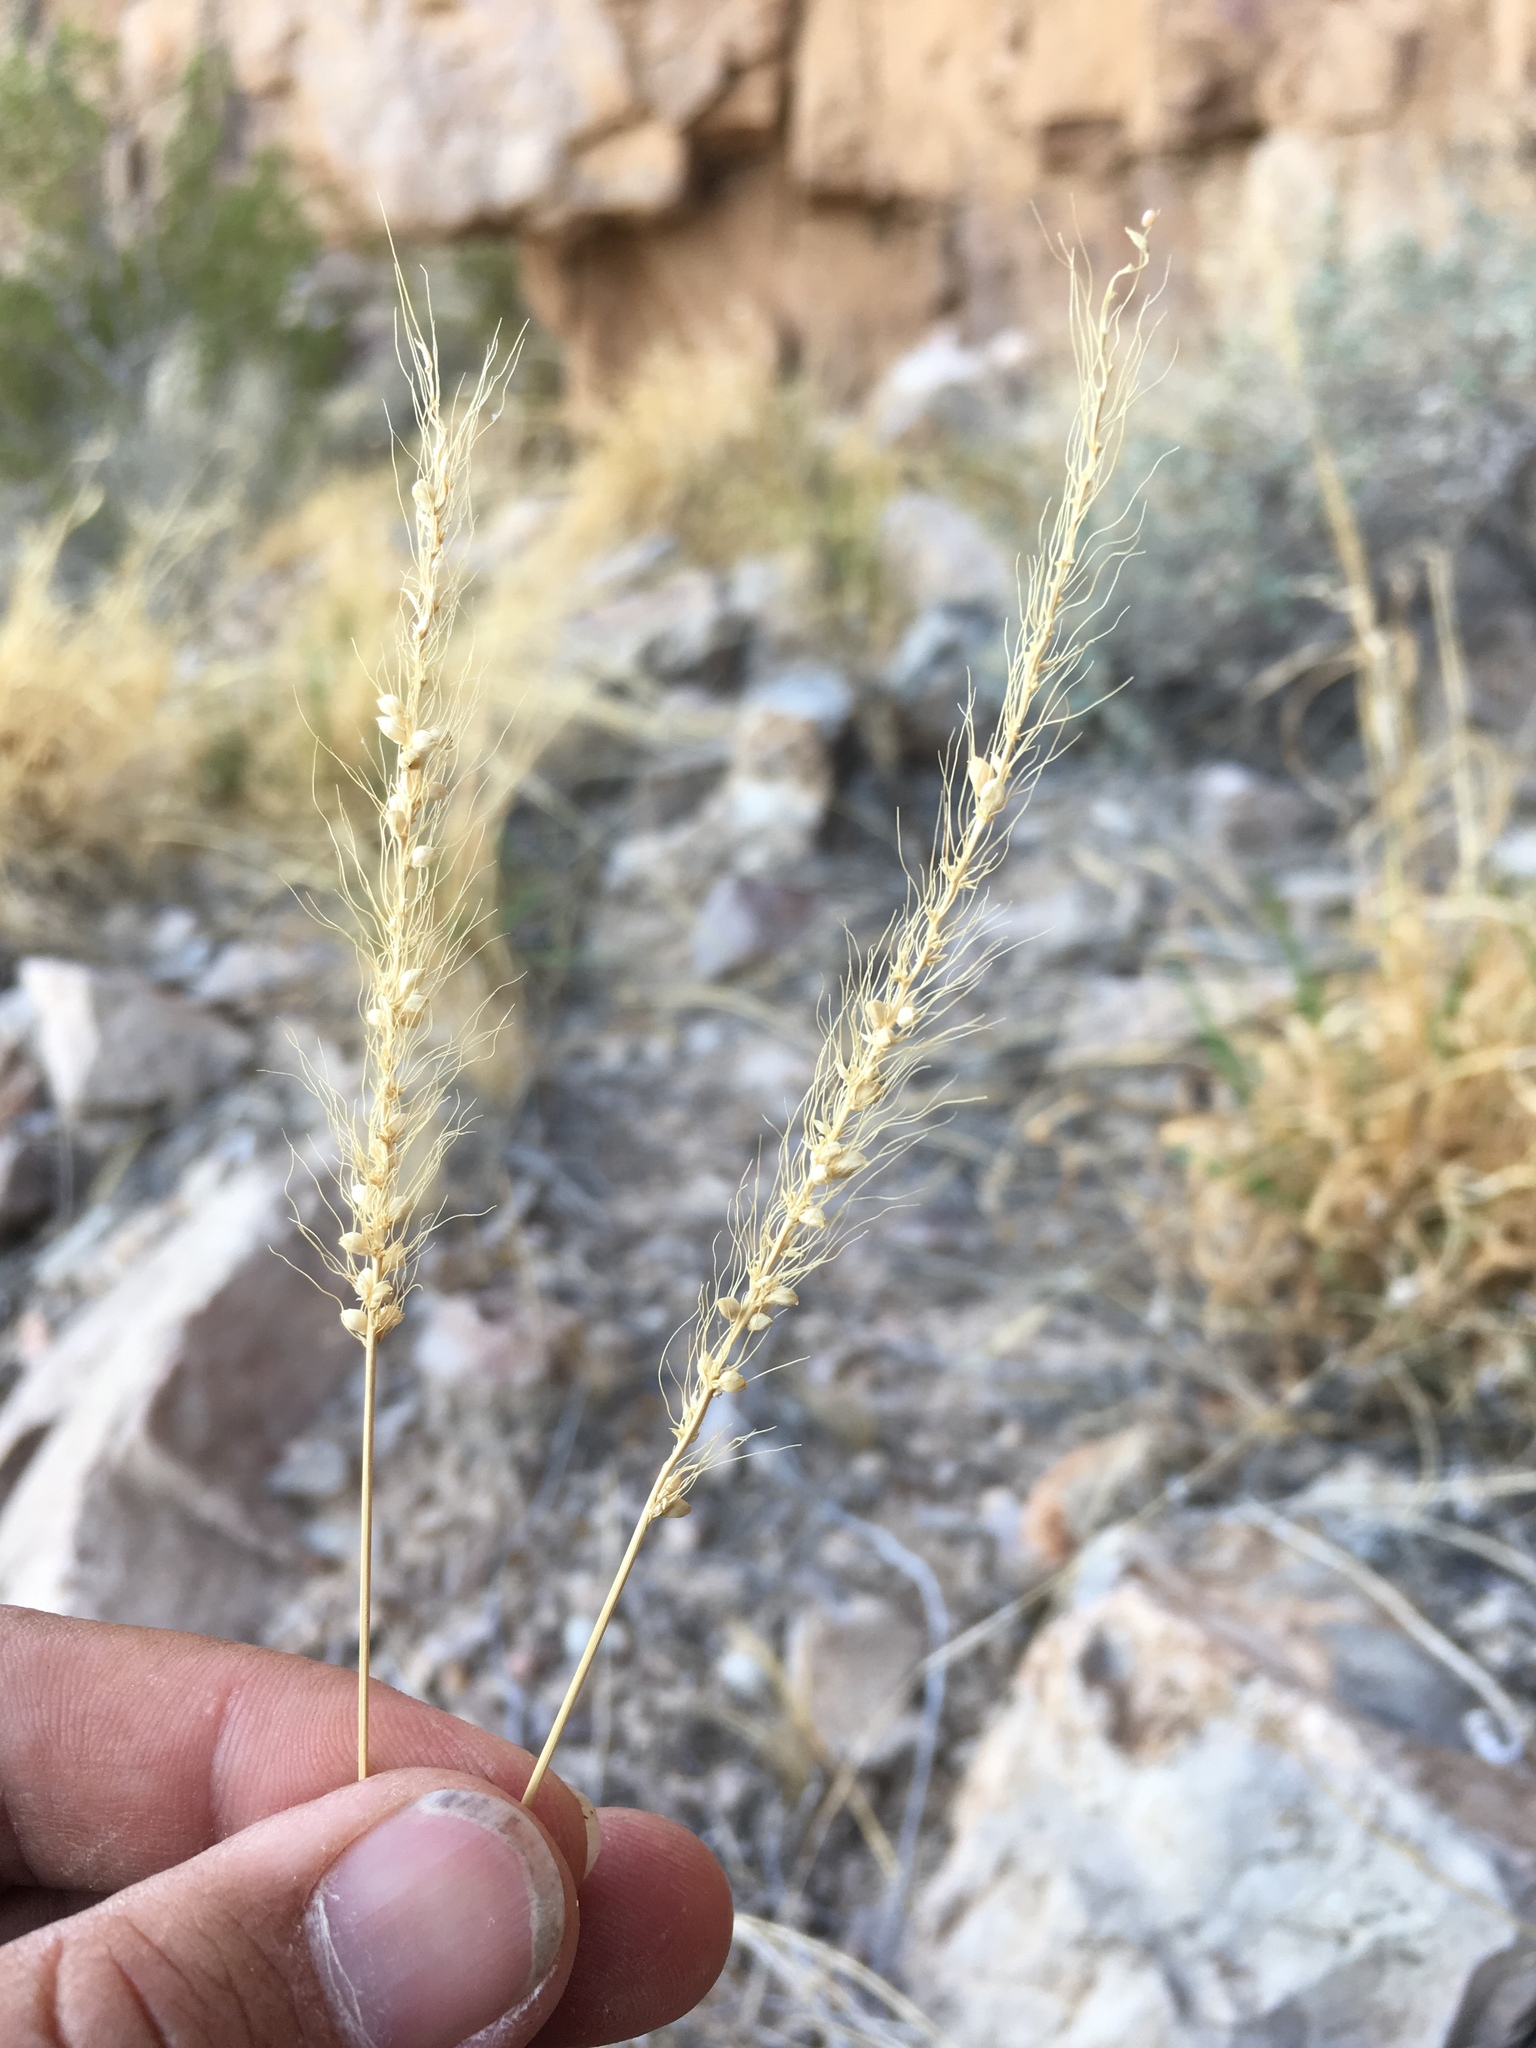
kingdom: Plantae
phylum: Tracheophyta
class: Liliopsida
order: Poales
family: Poaceae
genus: Setaria
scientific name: Setaria leucopila
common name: Plains bristle grass
